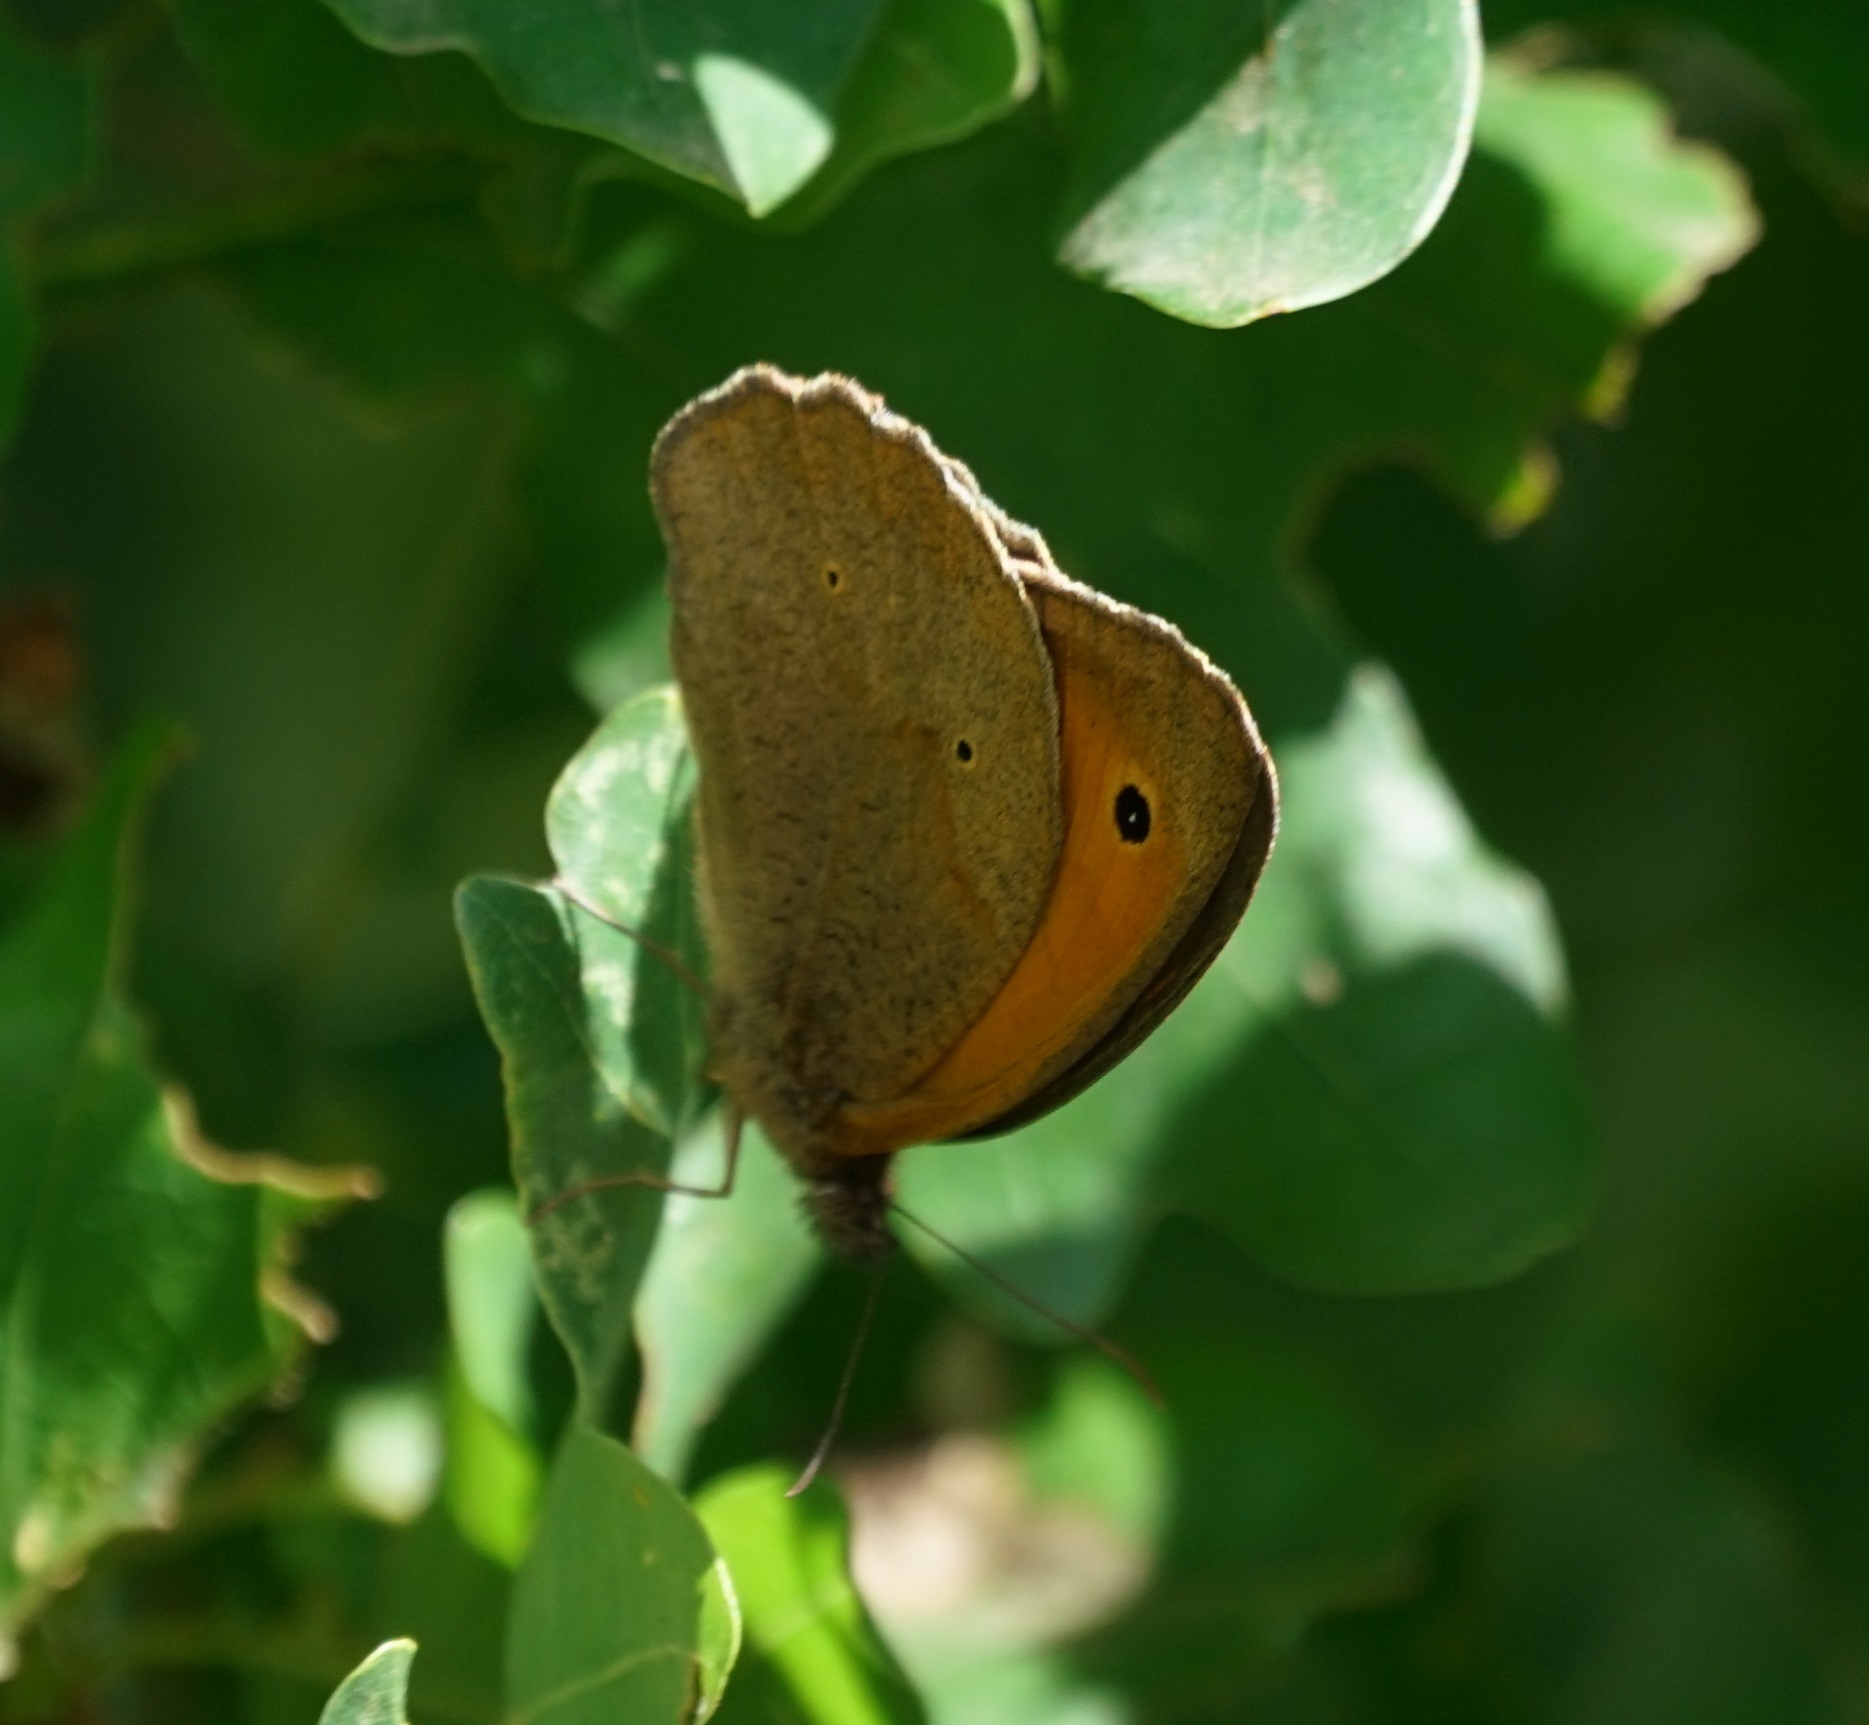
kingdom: Animalia
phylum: Arthropoda
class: Insecta
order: Lepidoptera
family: Nymphalidae
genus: Maniola
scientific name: Maniola jurtina
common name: Meadow brown
